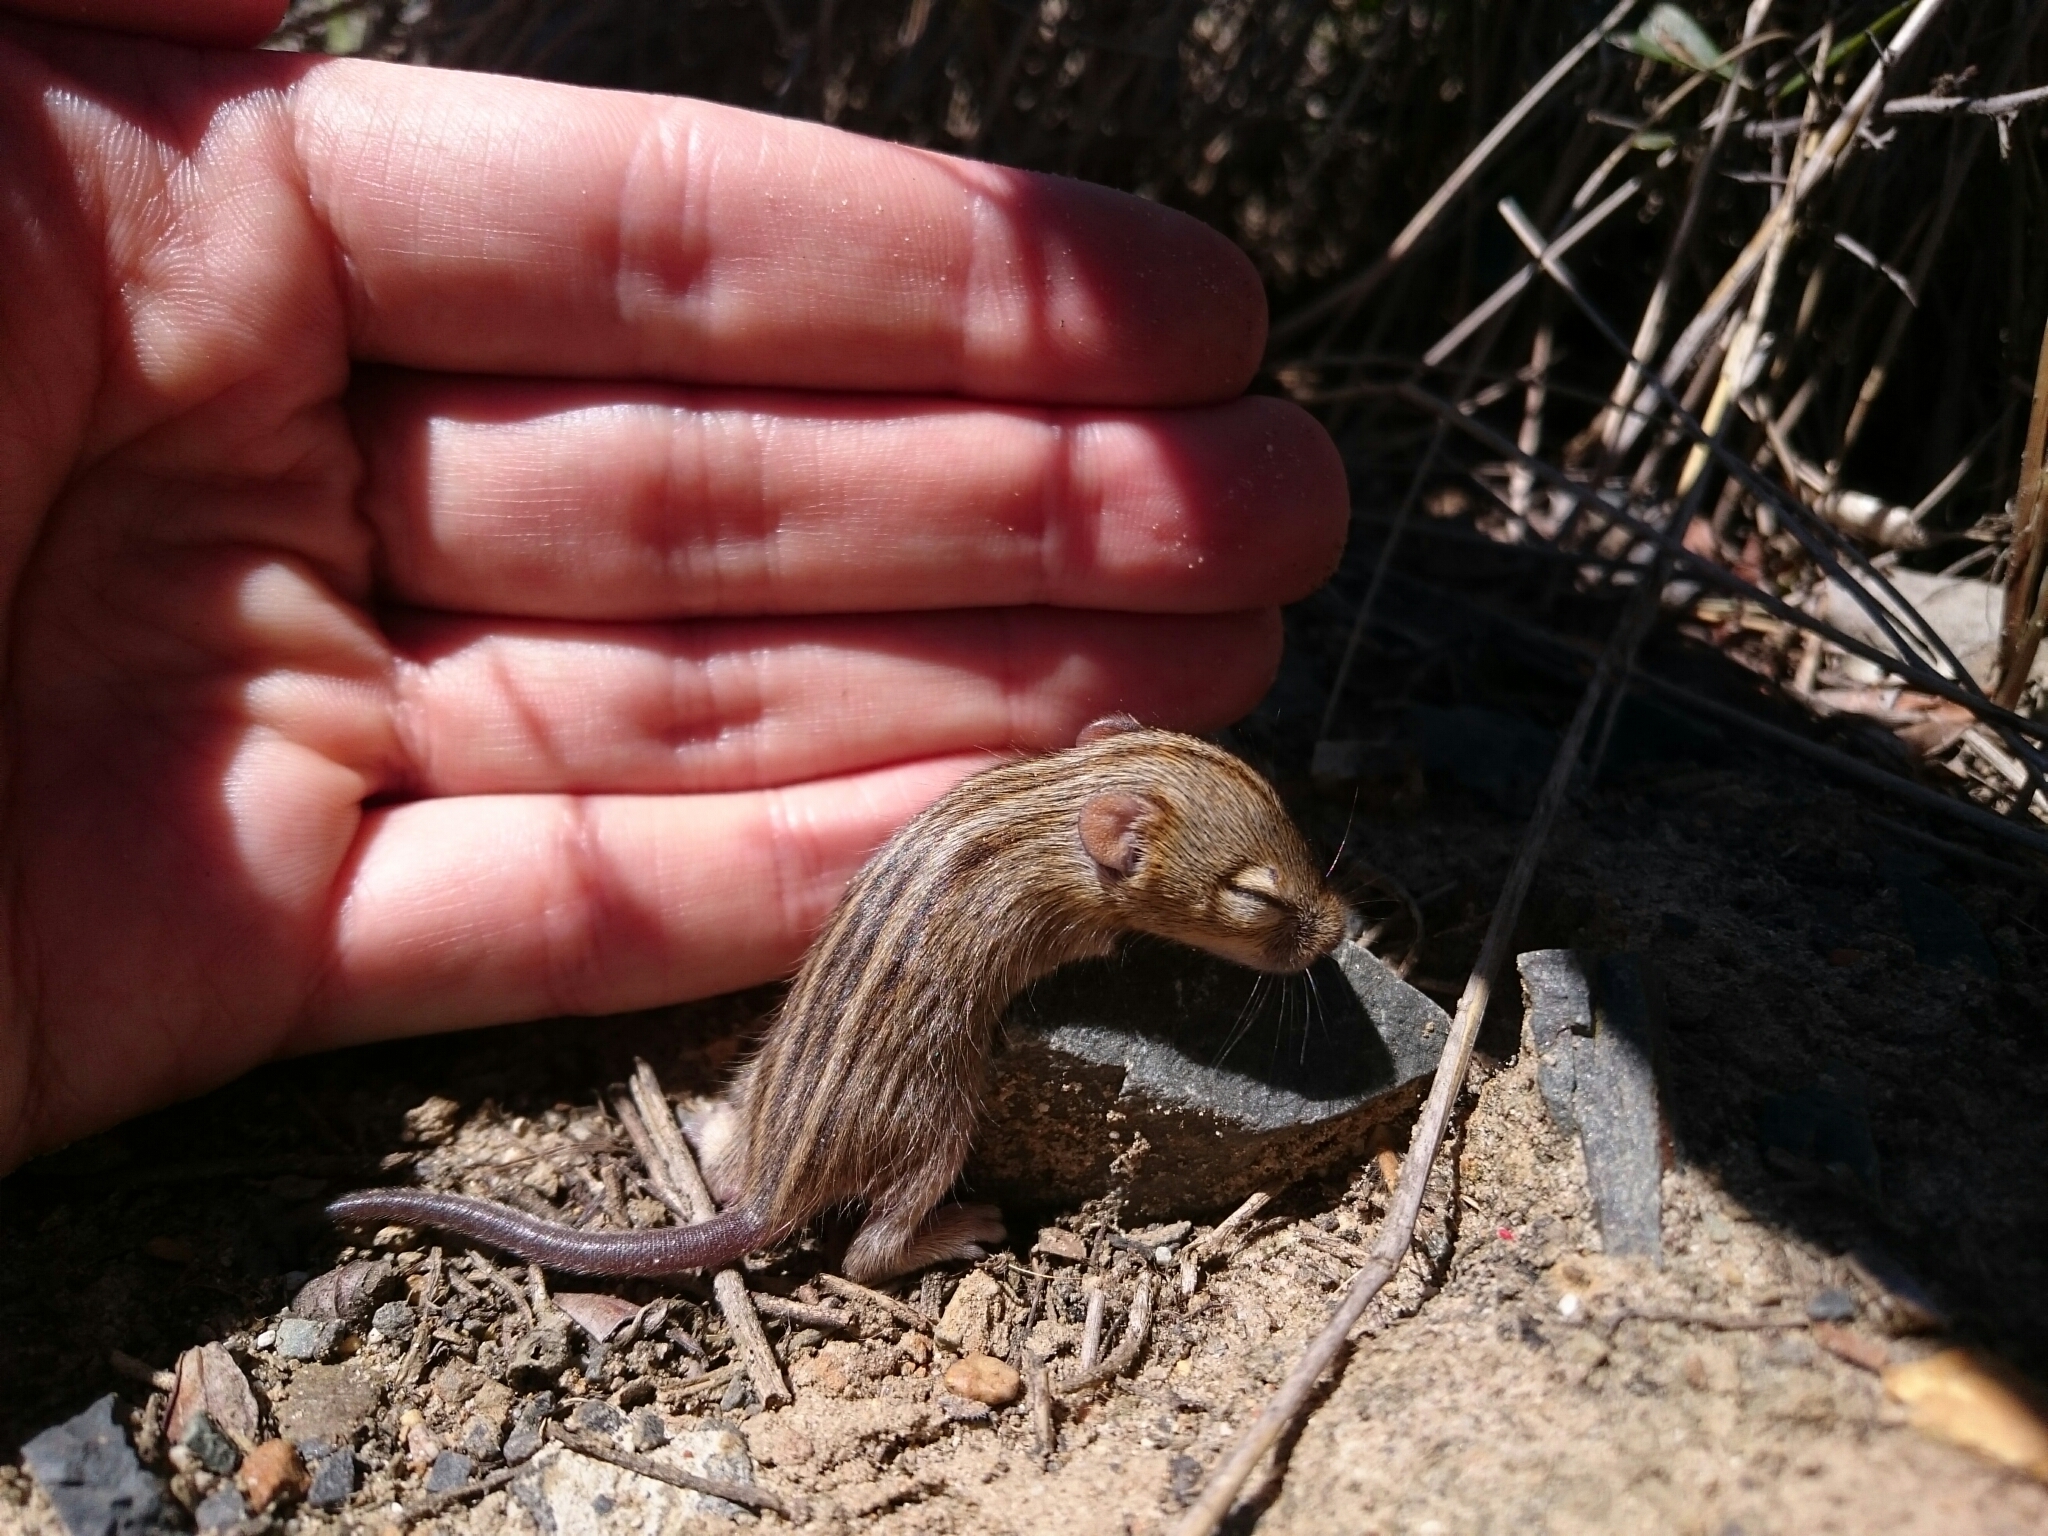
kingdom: Animalia
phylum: Chordata
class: Mammalia
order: Rodentia
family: Muridae
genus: Rhabdomys
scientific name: Rhabdomys pumilio
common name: Xeric four-striped grass rat
